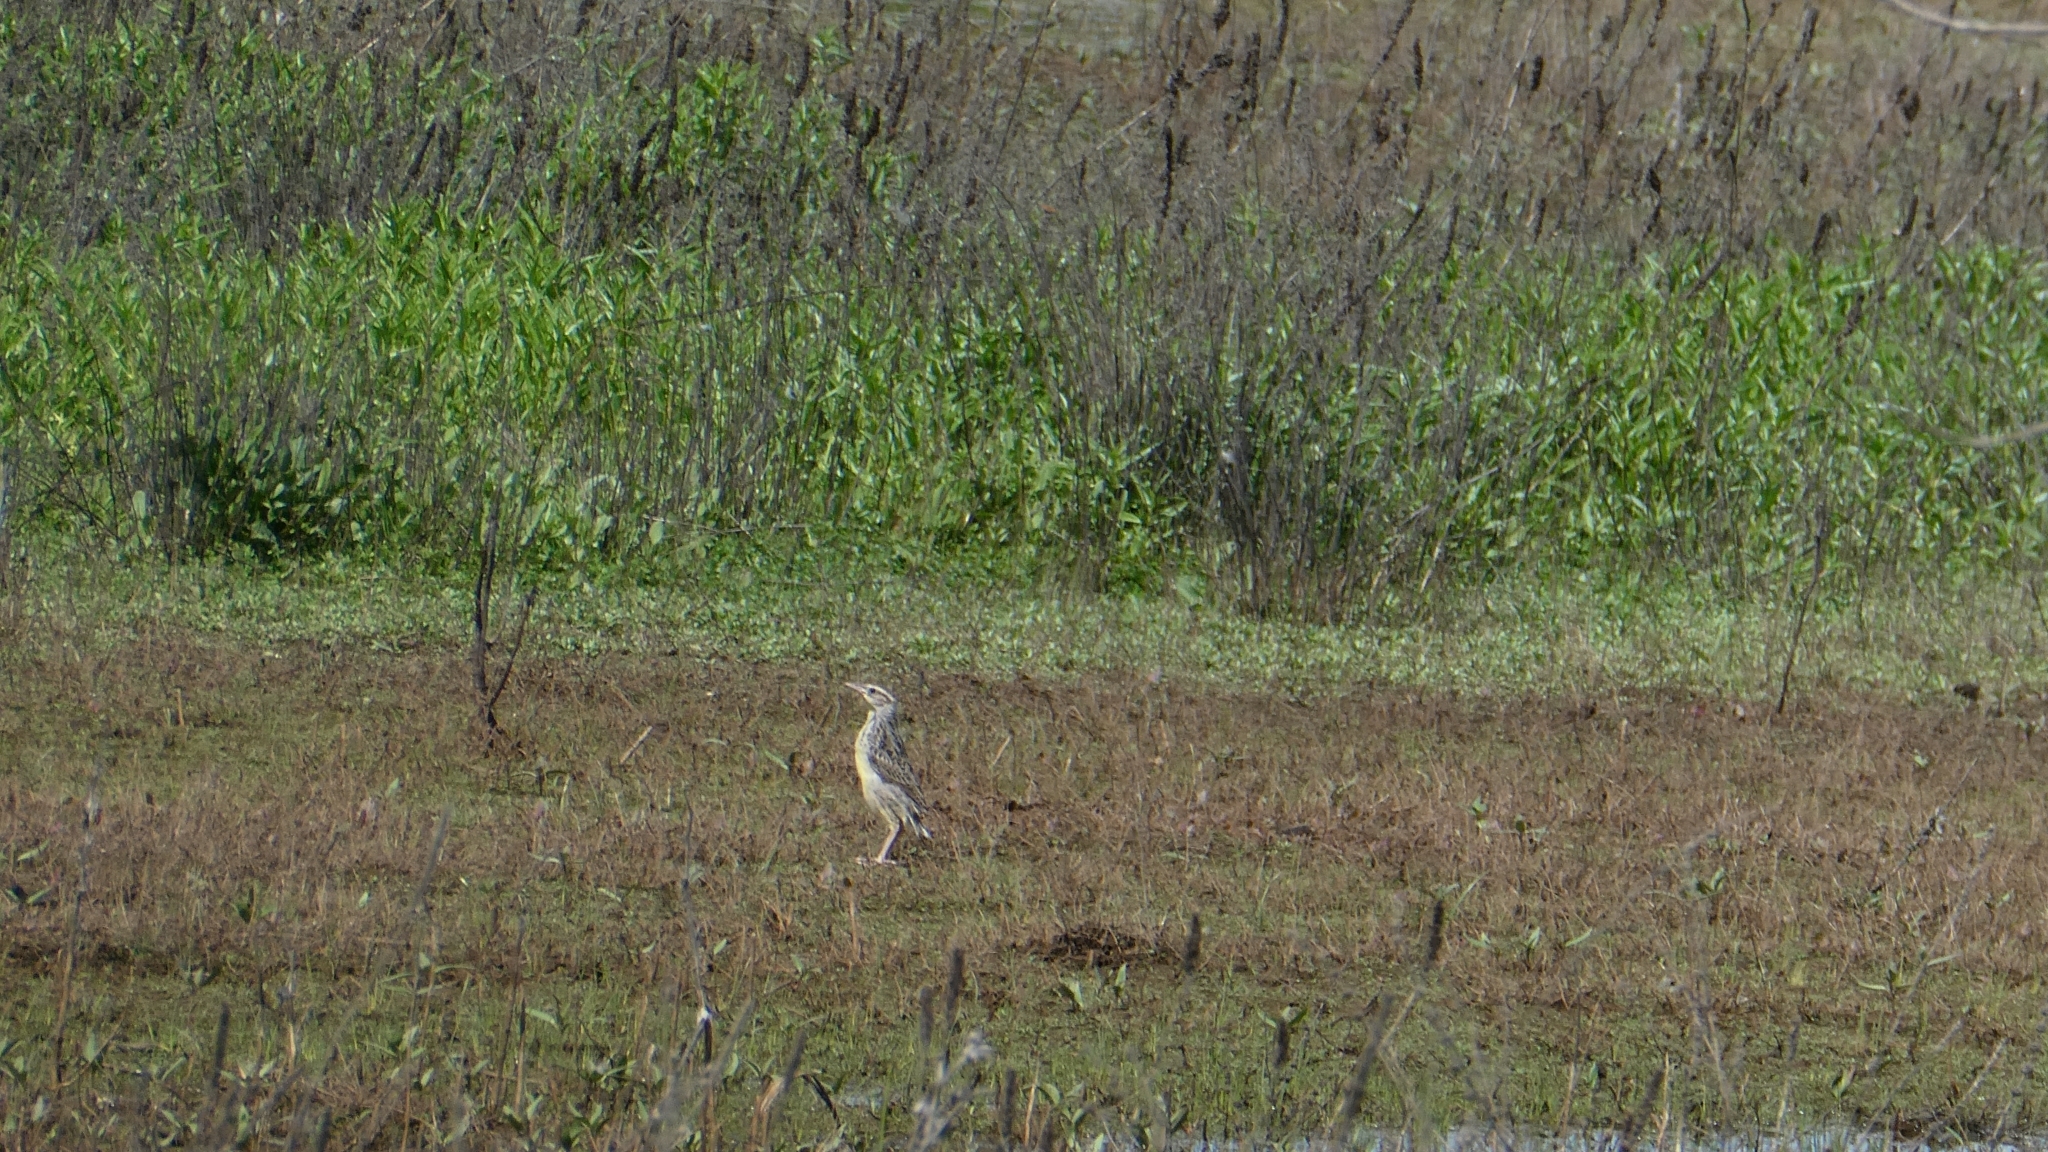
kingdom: Animalia
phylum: Chordata
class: Aves
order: Passeriformes
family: Icteridae
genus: Sturnella
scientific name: Sturnella neglecta
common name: Western meadowlark
